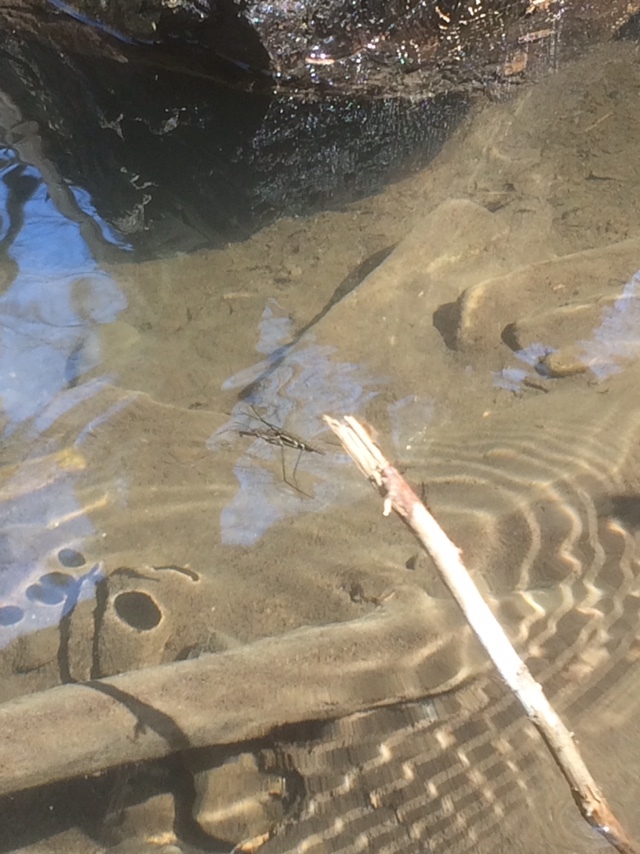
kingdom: Animalia
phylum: Arthropoda
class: Insecta
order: Hemiptera
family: Gerridae
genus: Aquarius
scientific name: Aquarius
